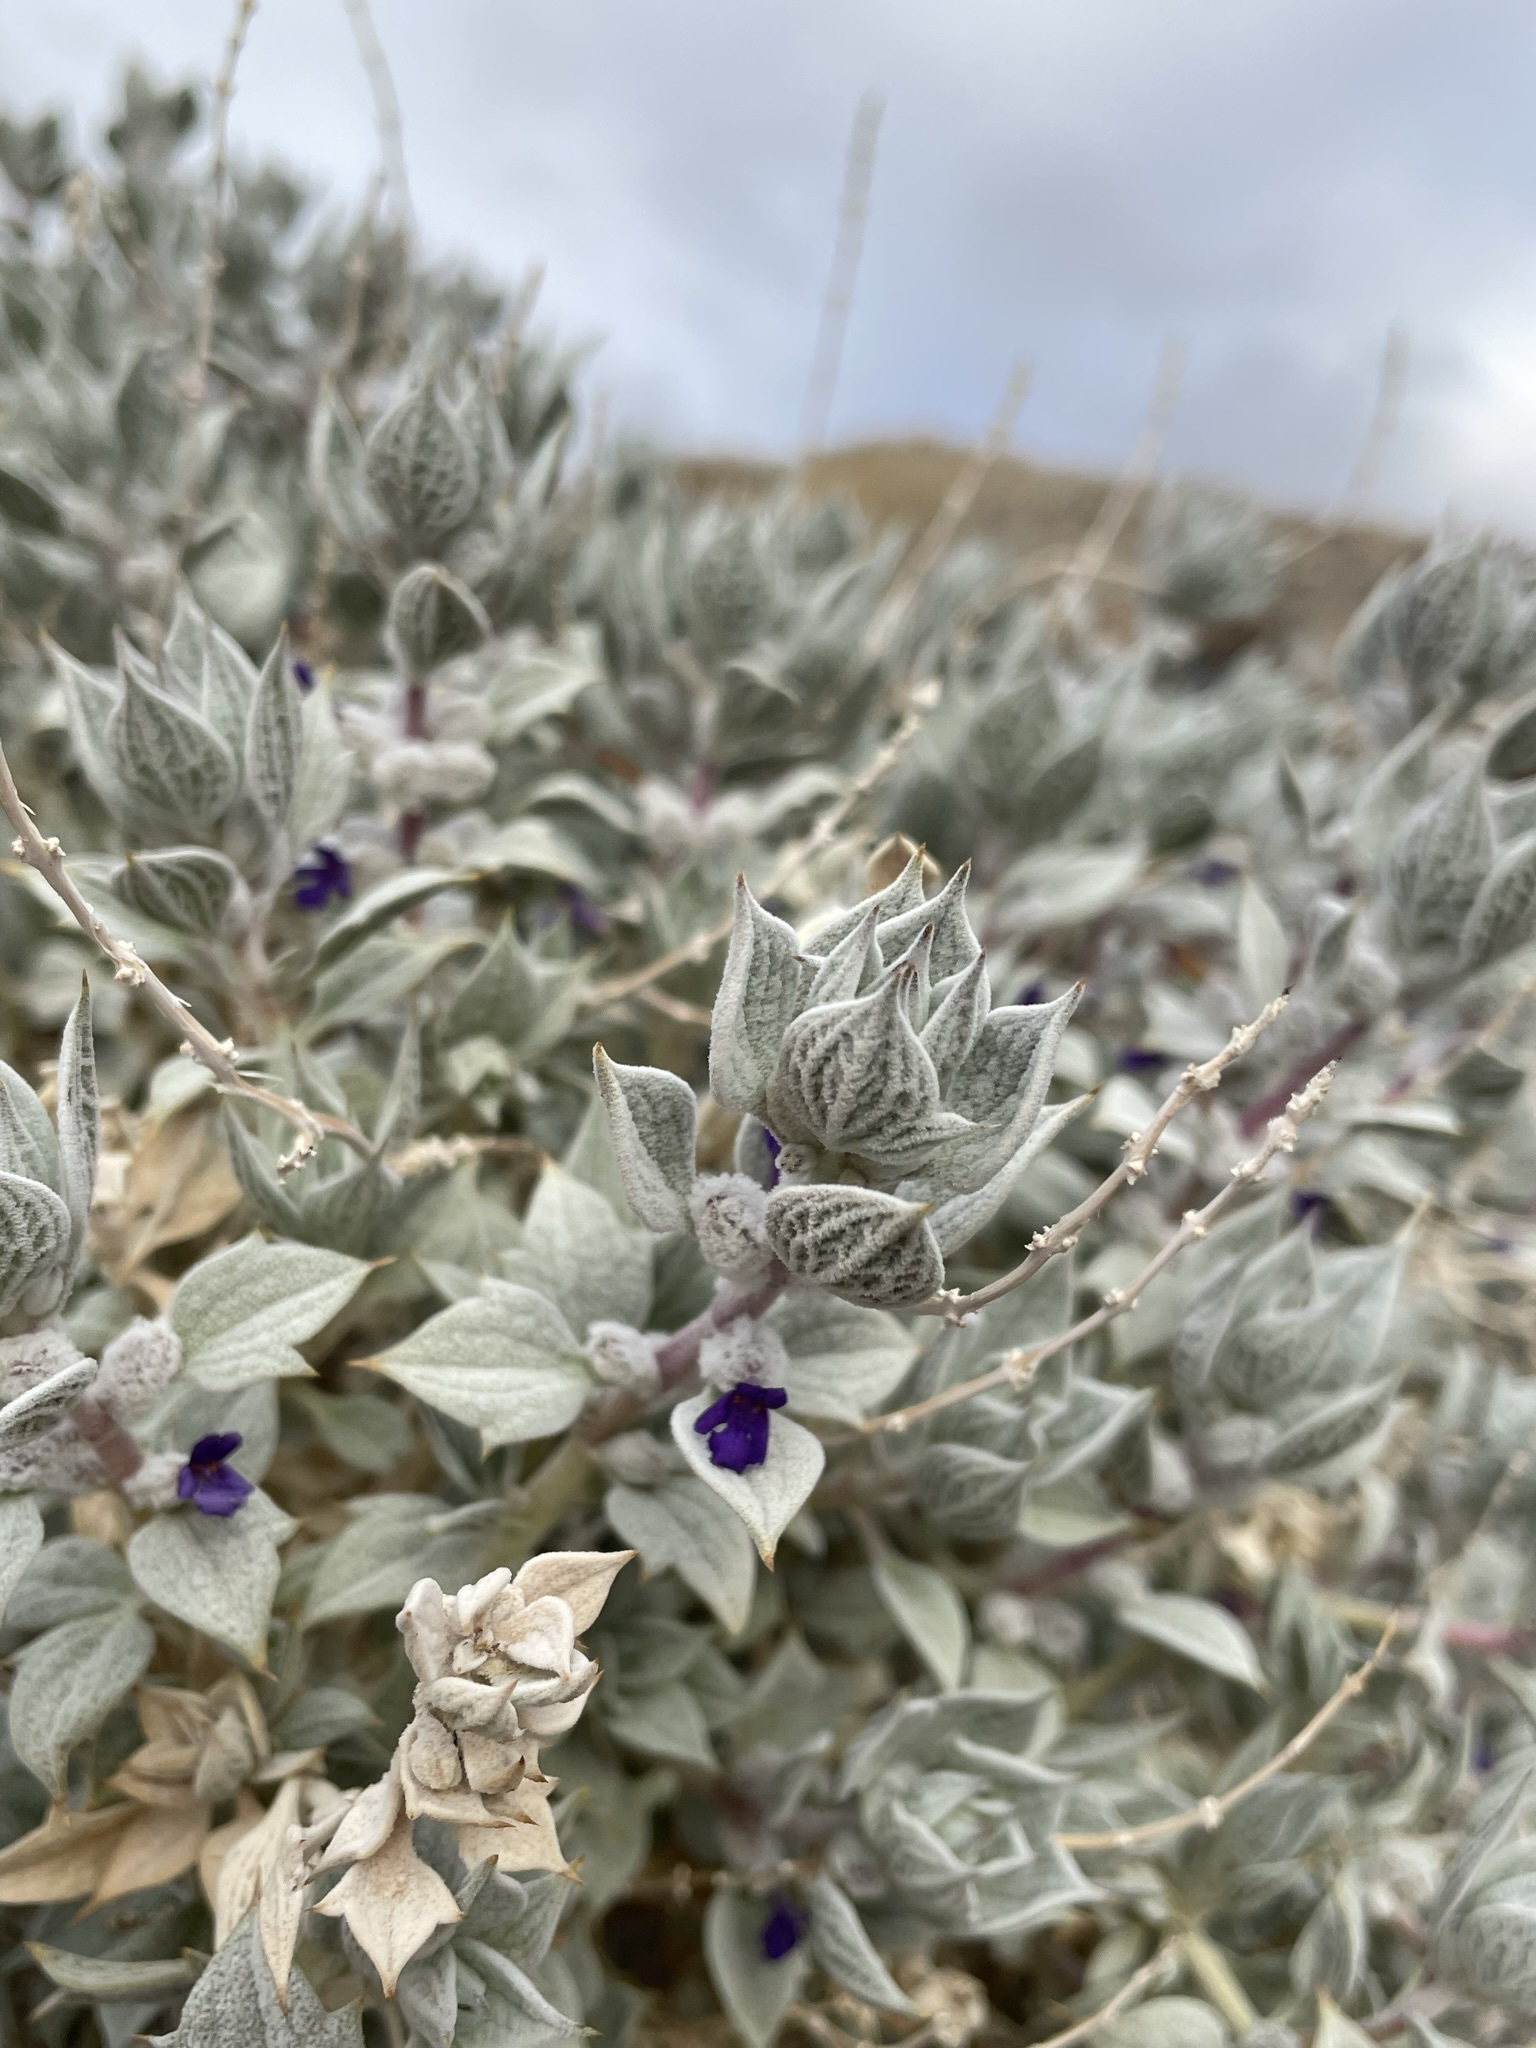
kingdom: Plantae
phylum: Tracheophyta
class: Magnoliopsida
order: Lamiales
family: Lamiaceae
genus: Salvia
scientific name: Salvia funerea
